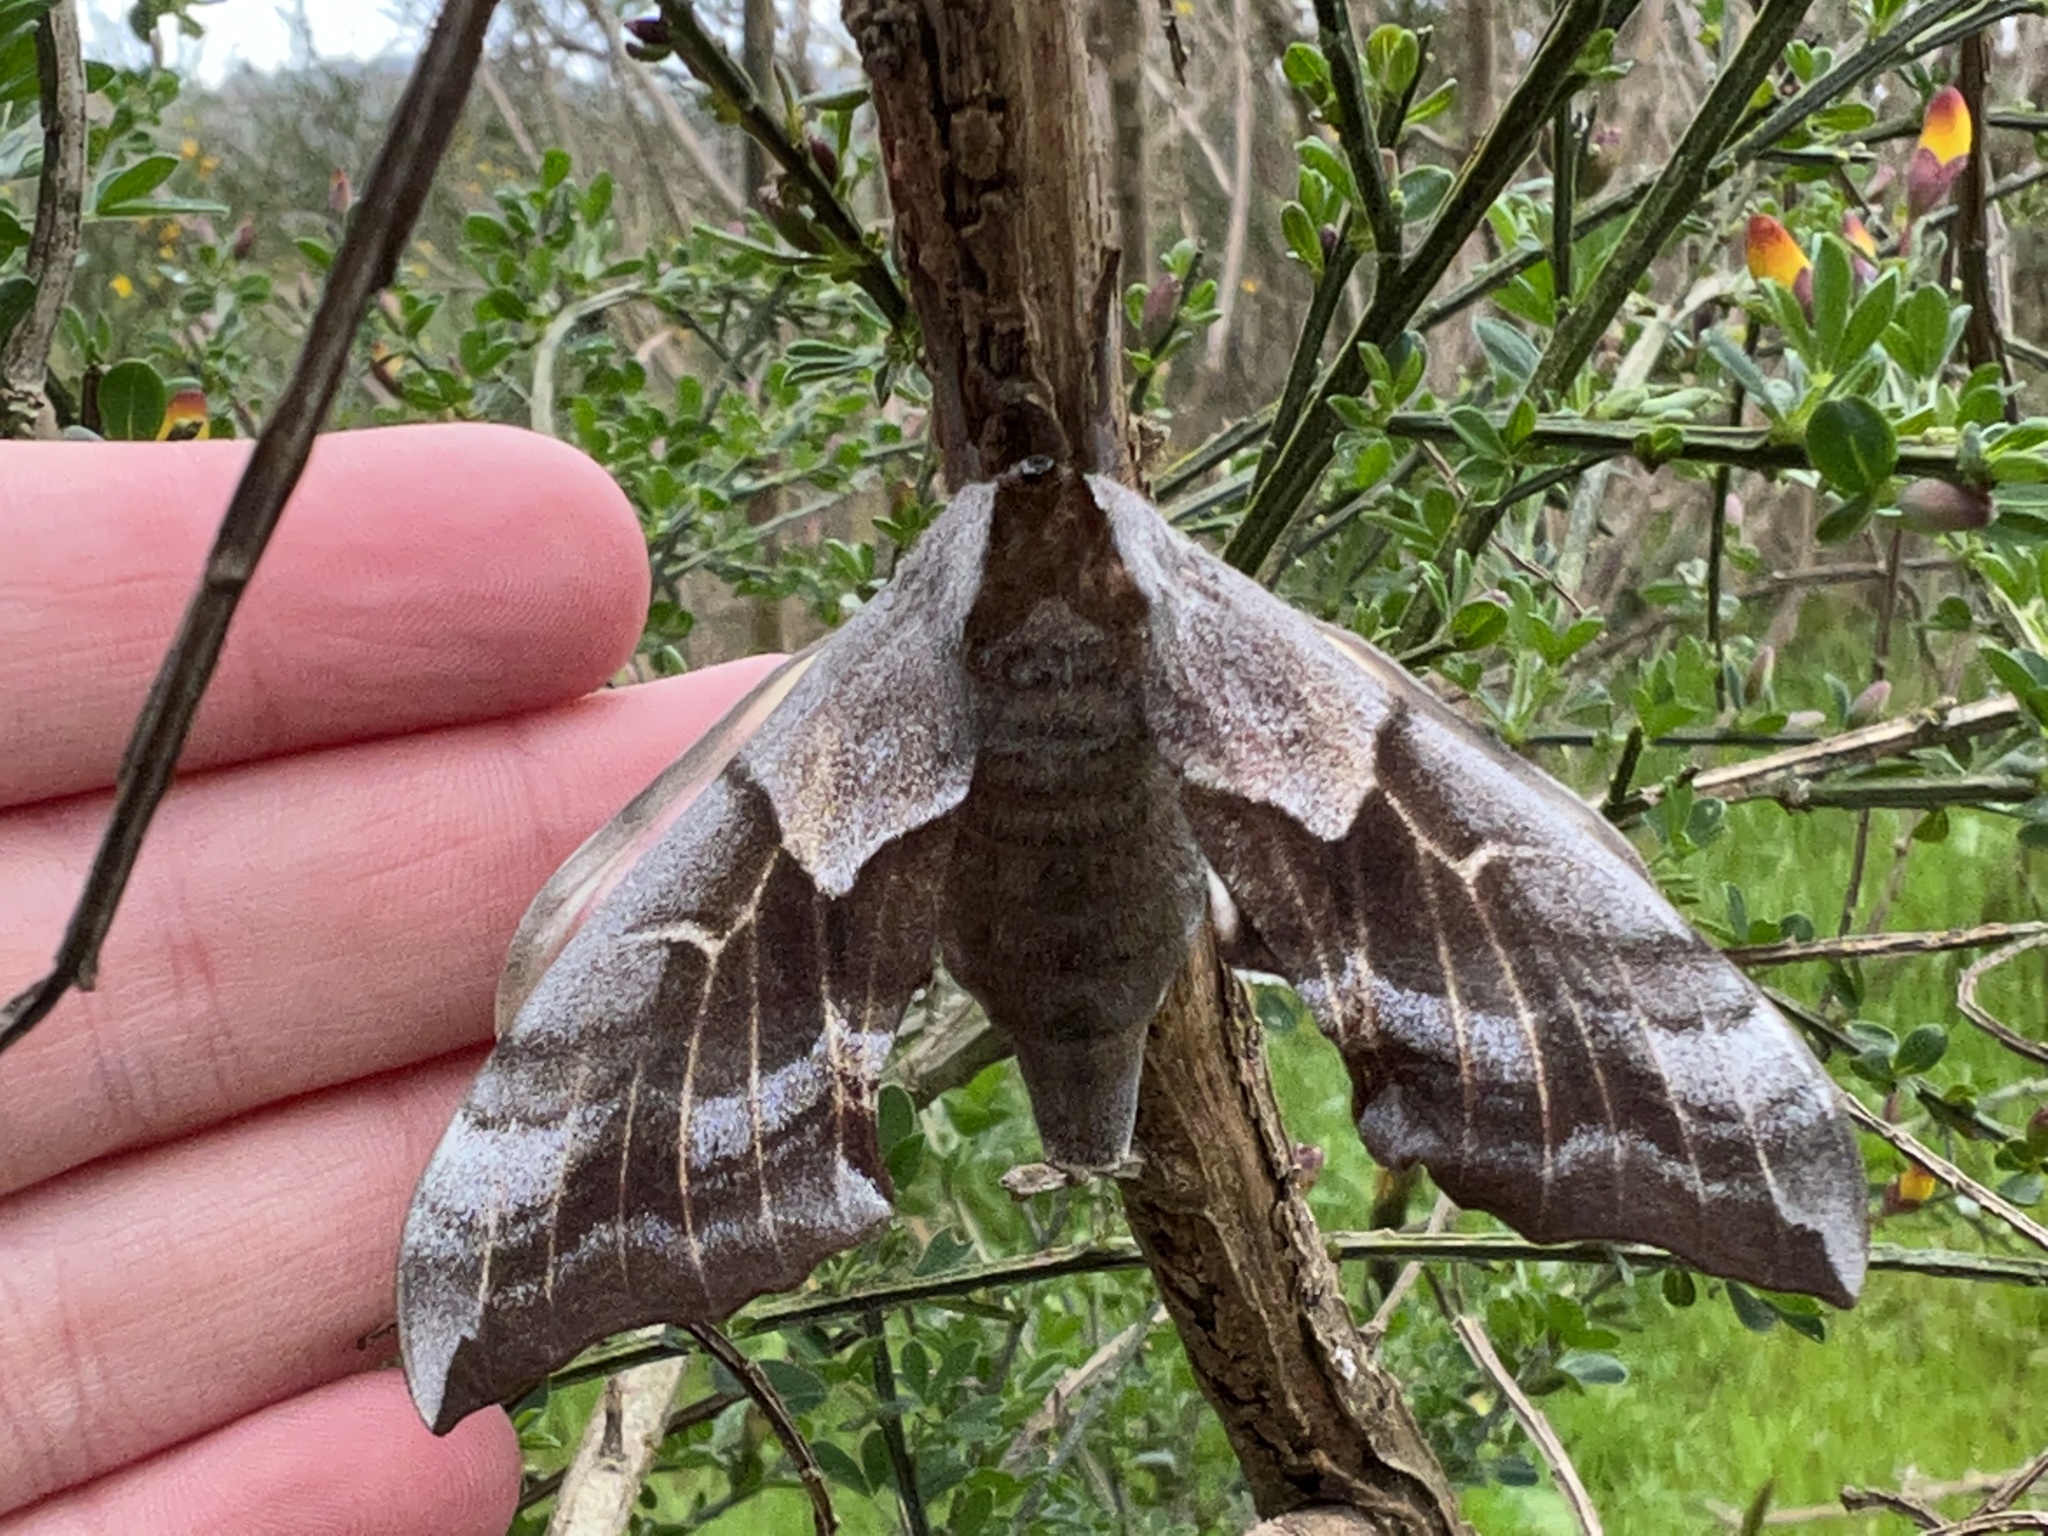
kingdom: Animalia
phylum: Arthropoda
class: Insecta
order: Lepidoptera
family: Sphingidae
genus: Smerinthus
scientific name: Smerinthus cerisyi
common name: Cerisy's sphinx moth
